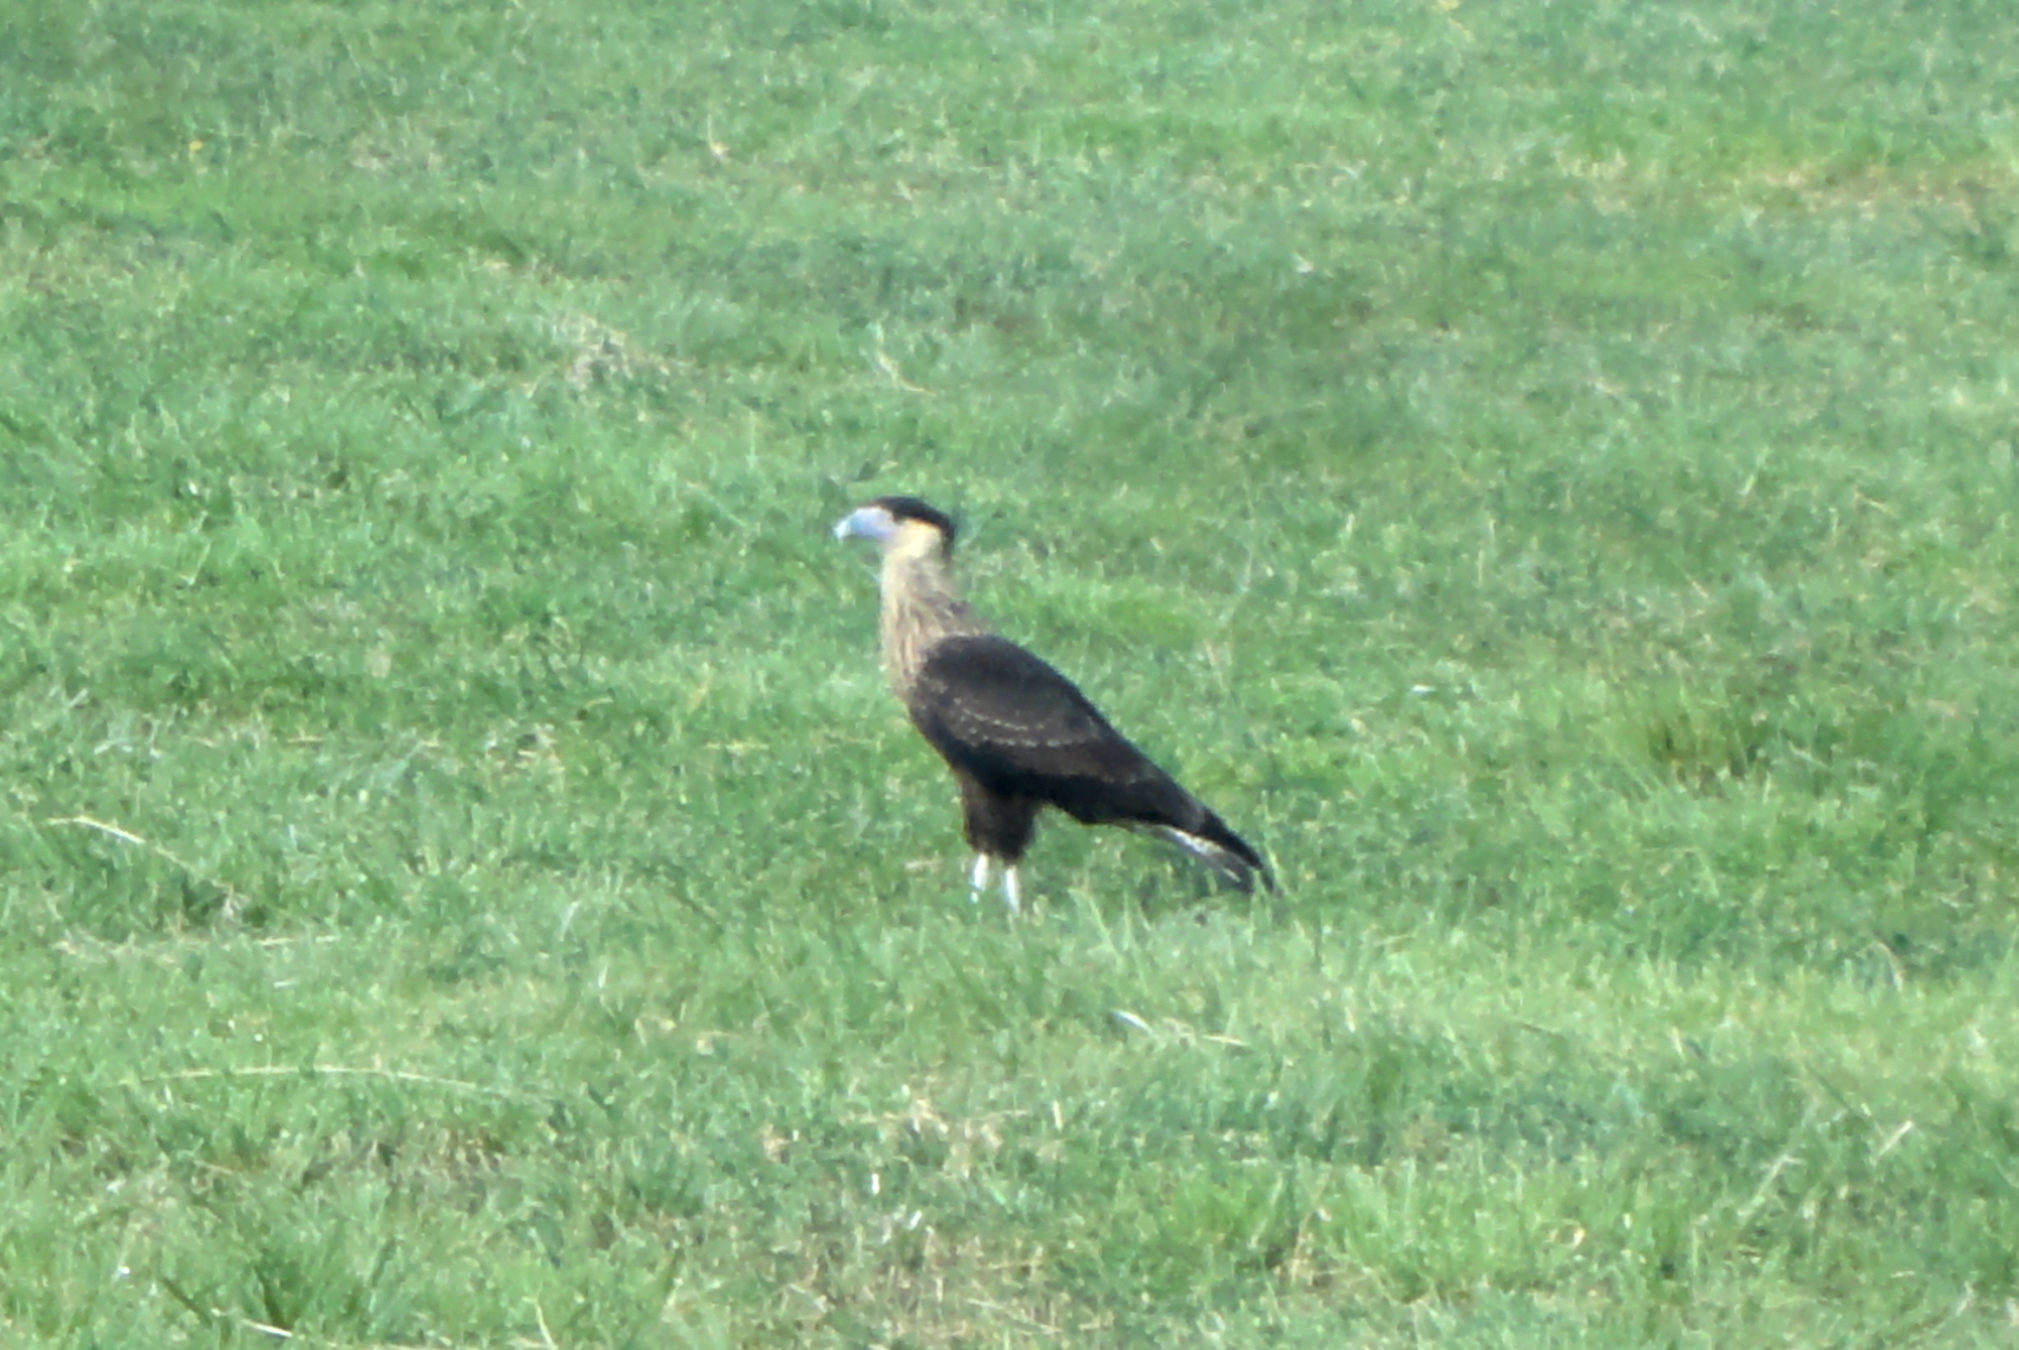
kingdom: Animalia
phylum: Chordata
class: Aves
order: Falconiformes
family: Falconidae
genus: Caracara
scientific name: Caracara plancus
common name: Southern caracara
